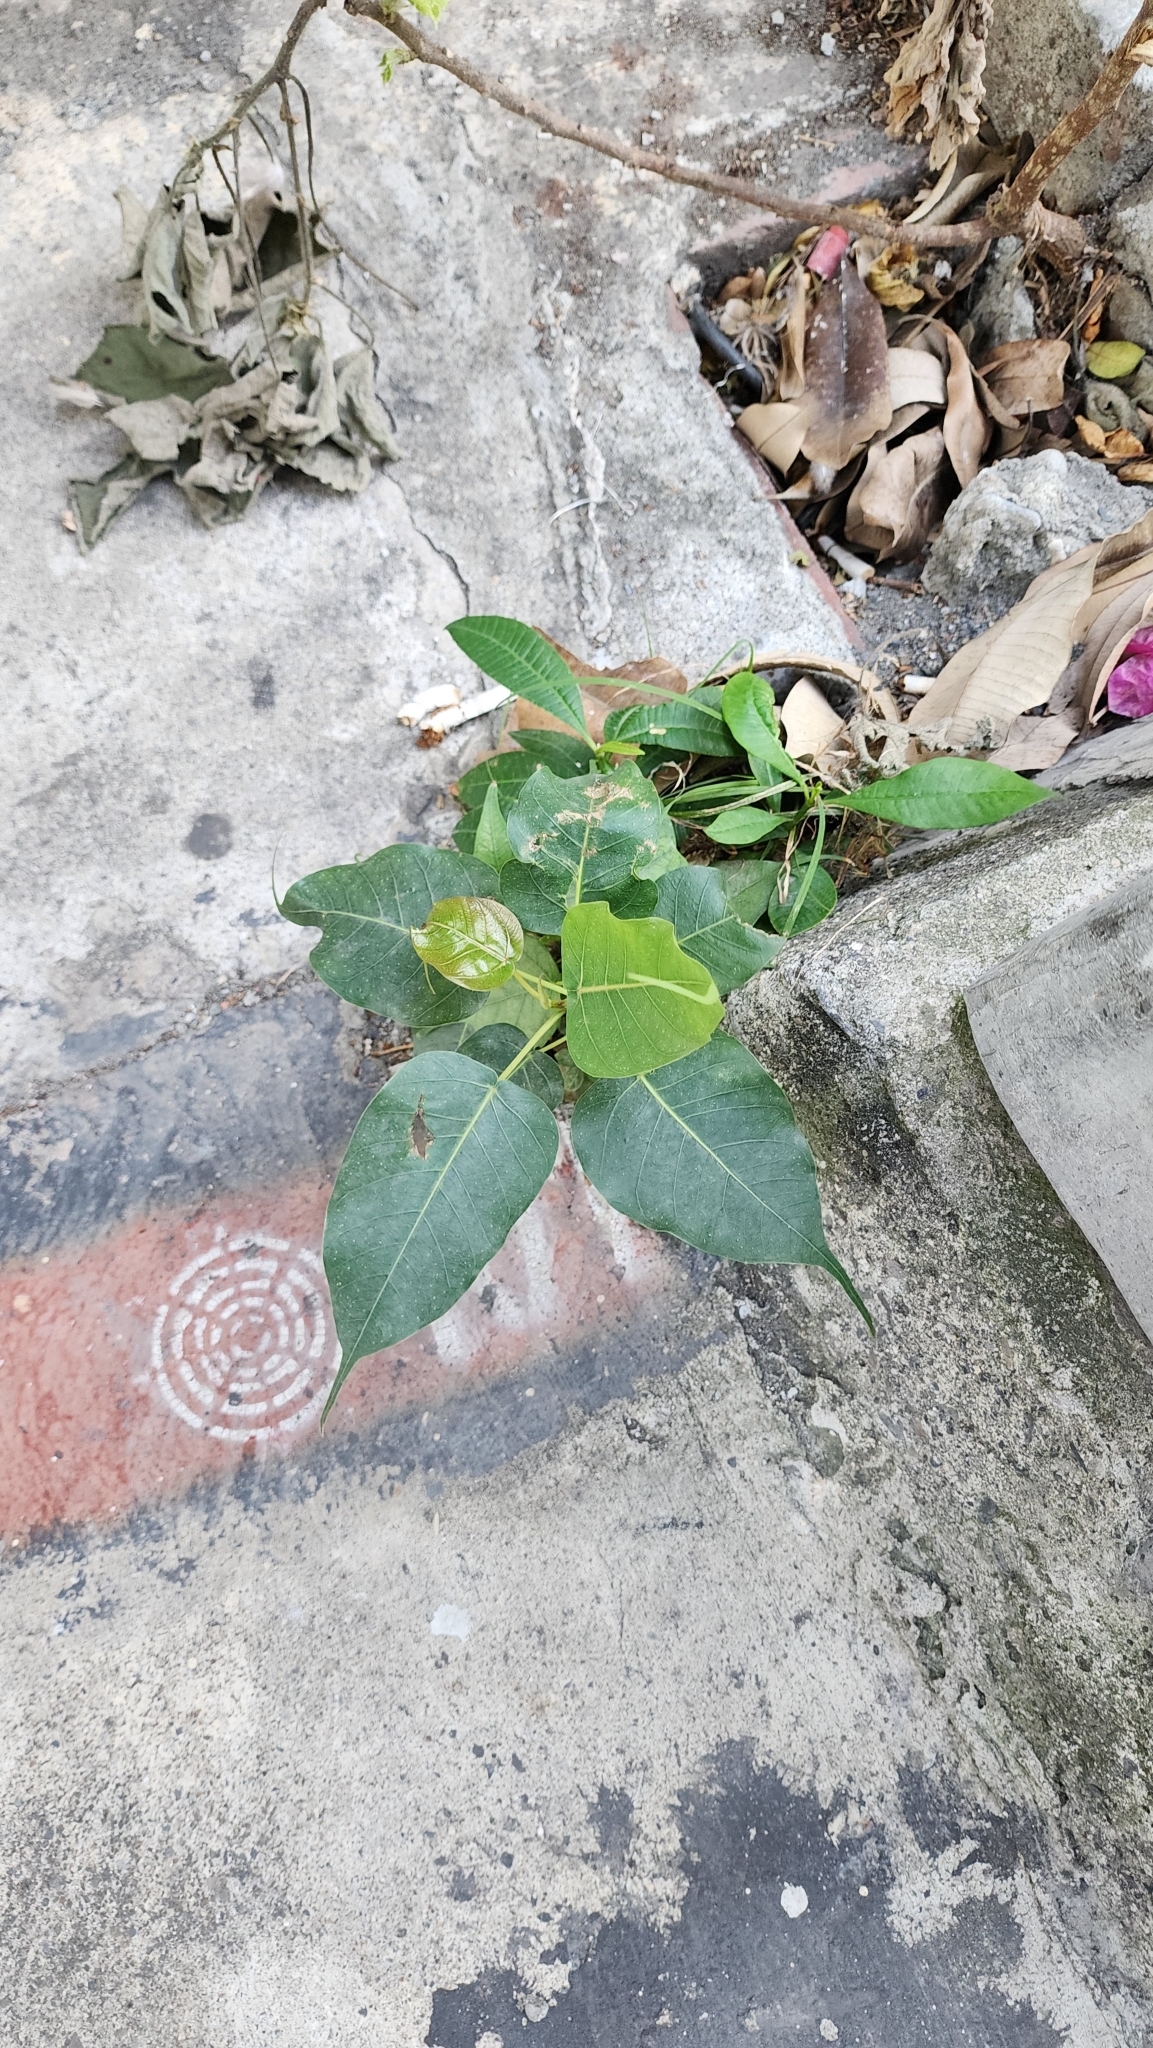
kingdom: Plantae
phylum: Tracheophyta
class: Magnoliopsida
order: Rosales
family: Moraceae
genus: Ficus
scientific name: Ficus religiosa
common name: Bodhi tree
